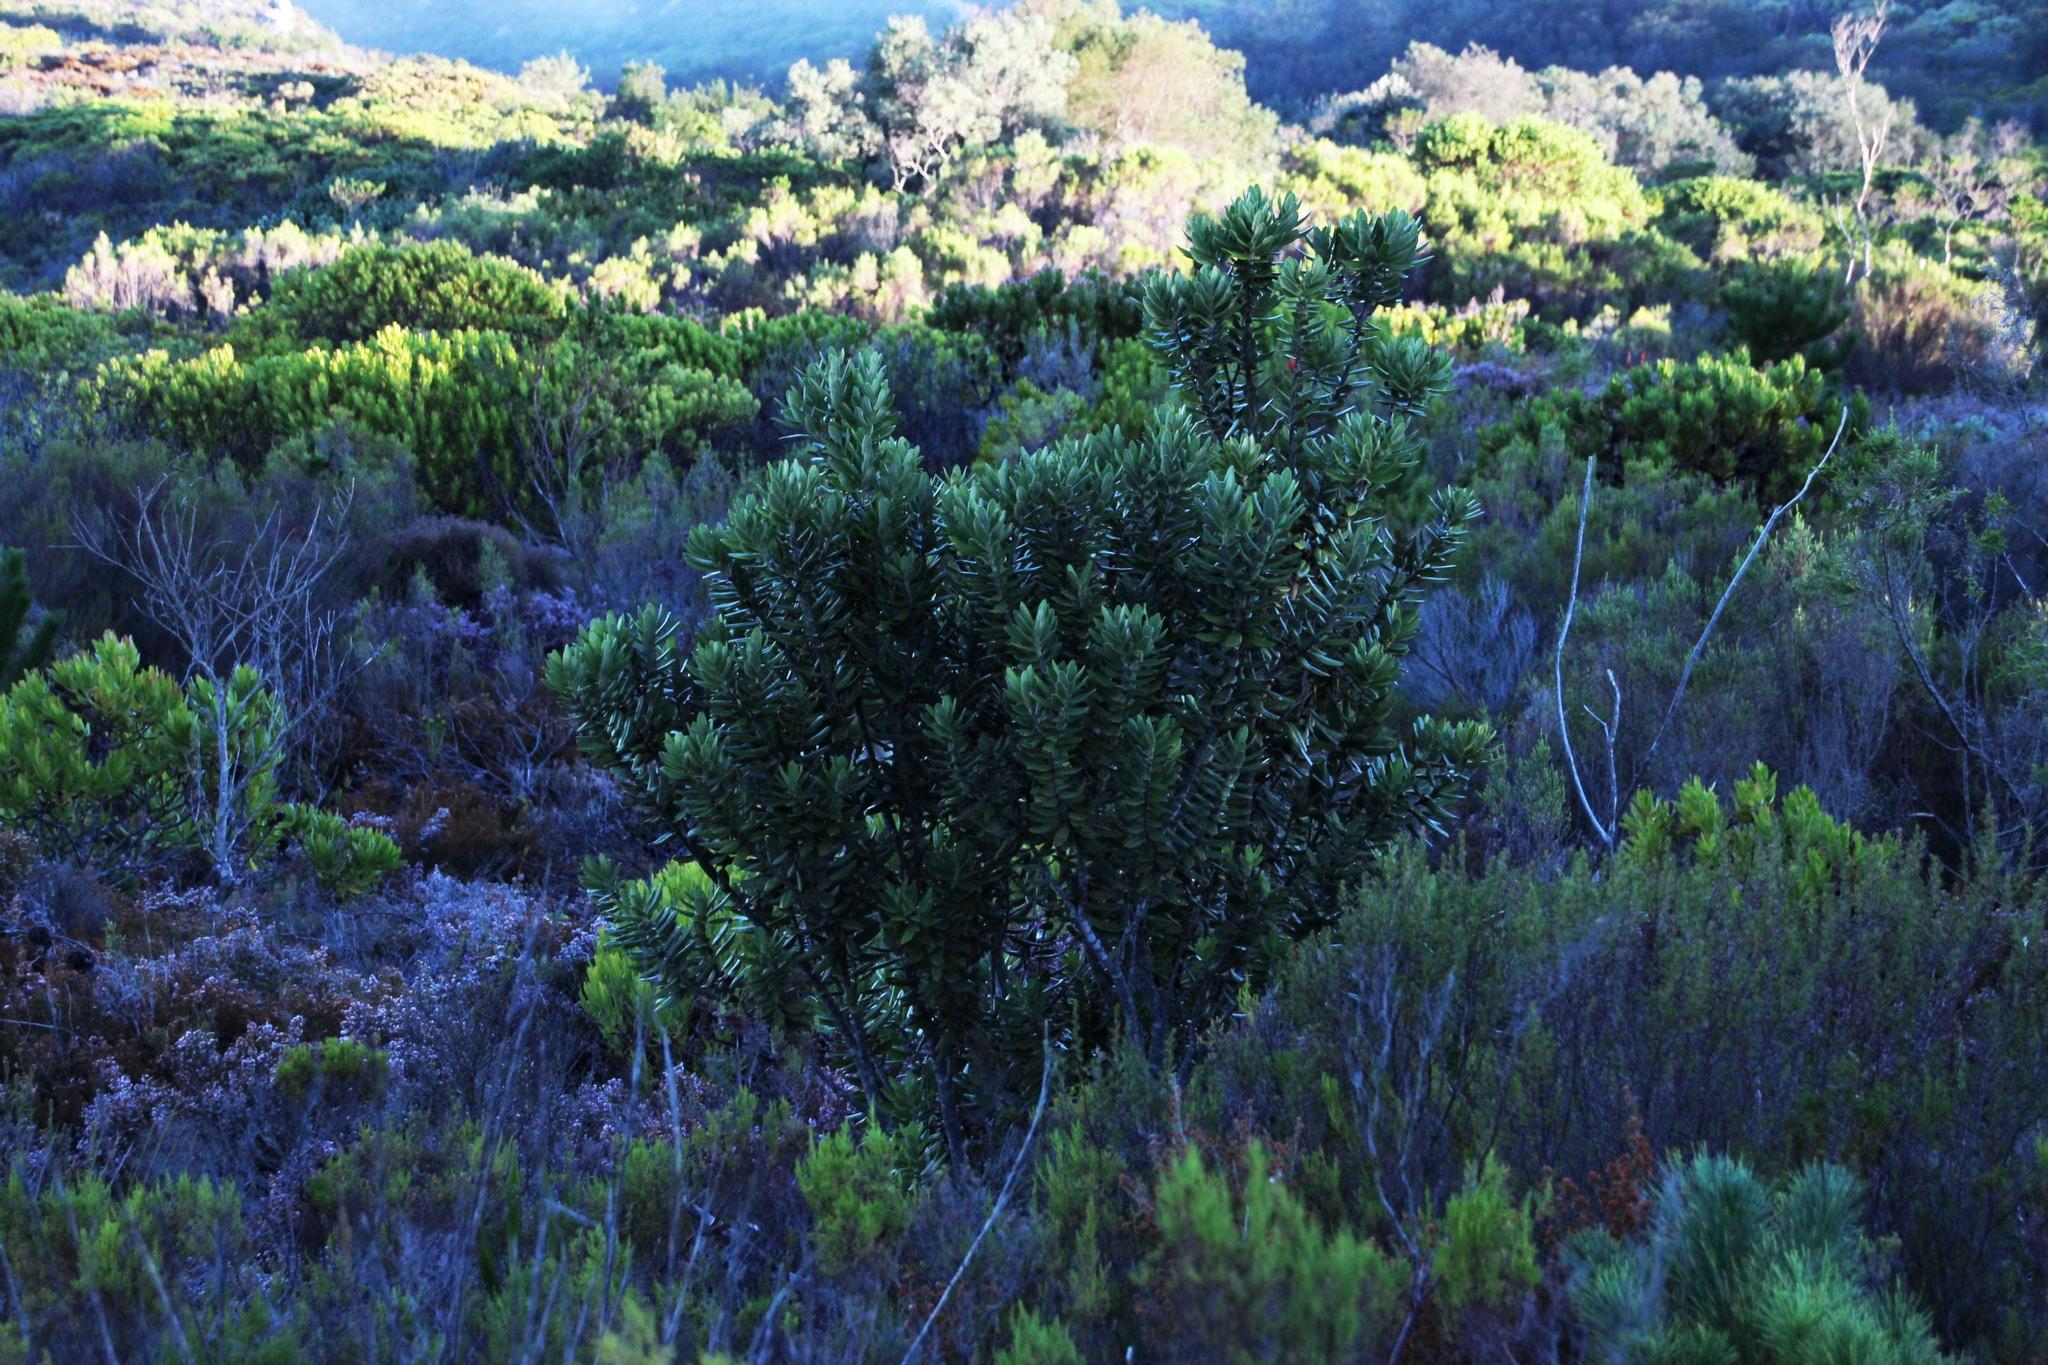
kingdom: Plantae
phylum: Tracheophyta
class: Magnoliopsida
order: Myrtales
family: Myrtaceae
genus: Metrosideros
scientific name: Metrosideros excelsa
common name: New zealand christmastree
